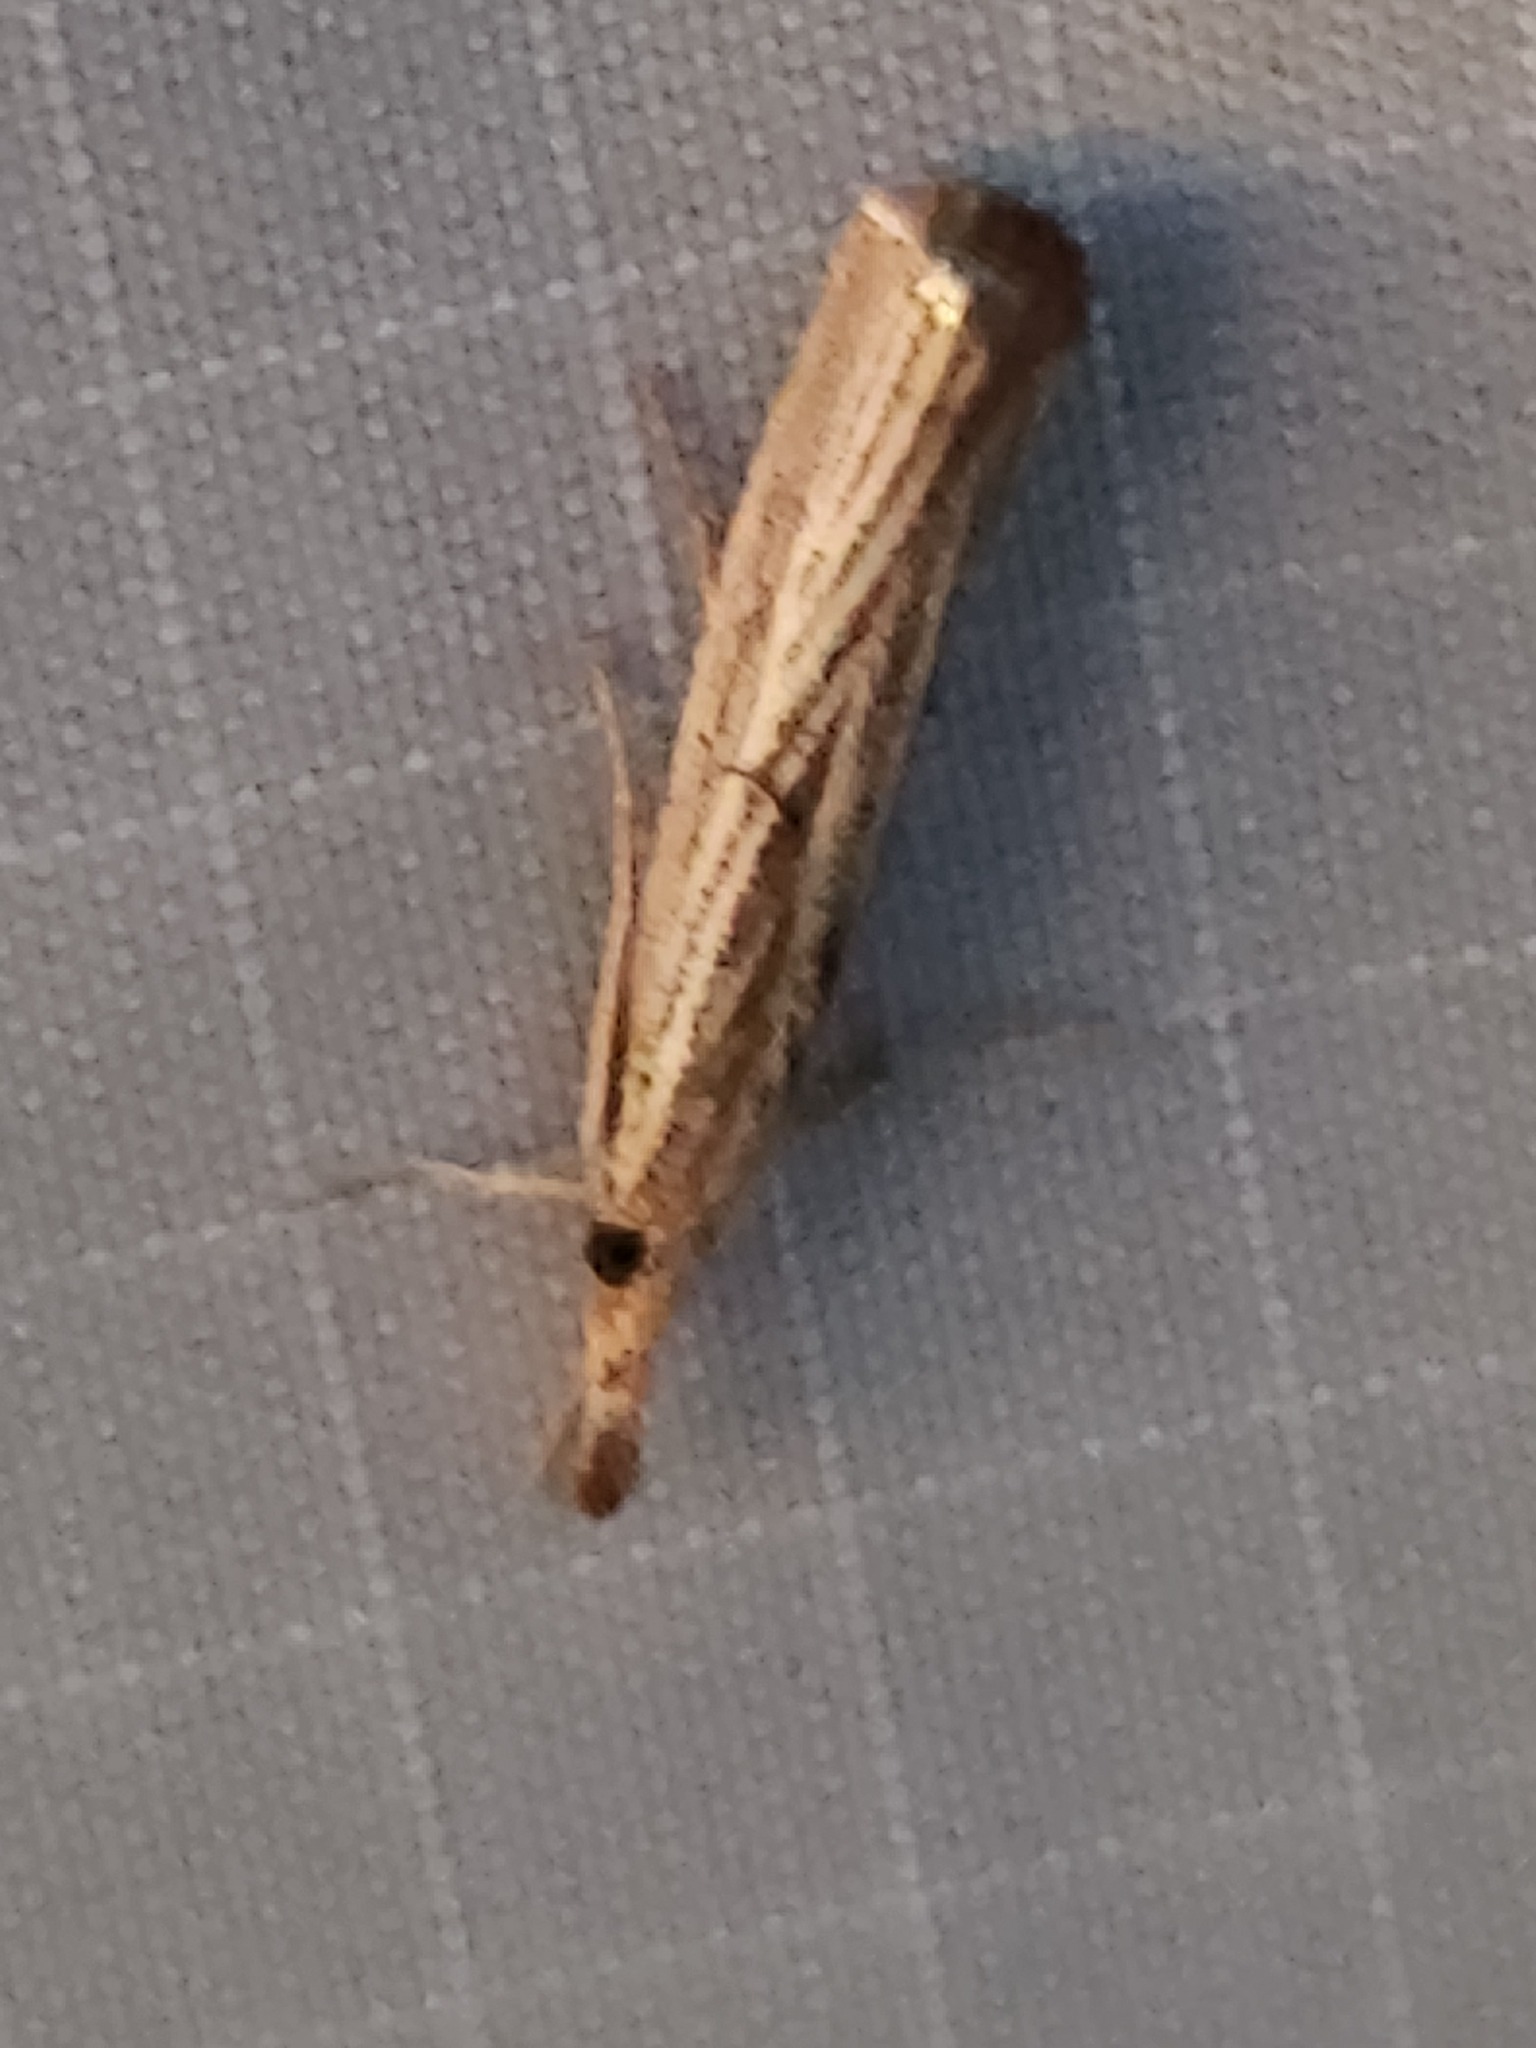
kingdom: Animalia
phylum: Arthropoda
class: Insecta
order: Lepidoptera
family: Crambidae
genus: Agriphila
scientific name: Agriphila vulgivagellus
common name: Vagabond crambus moth
